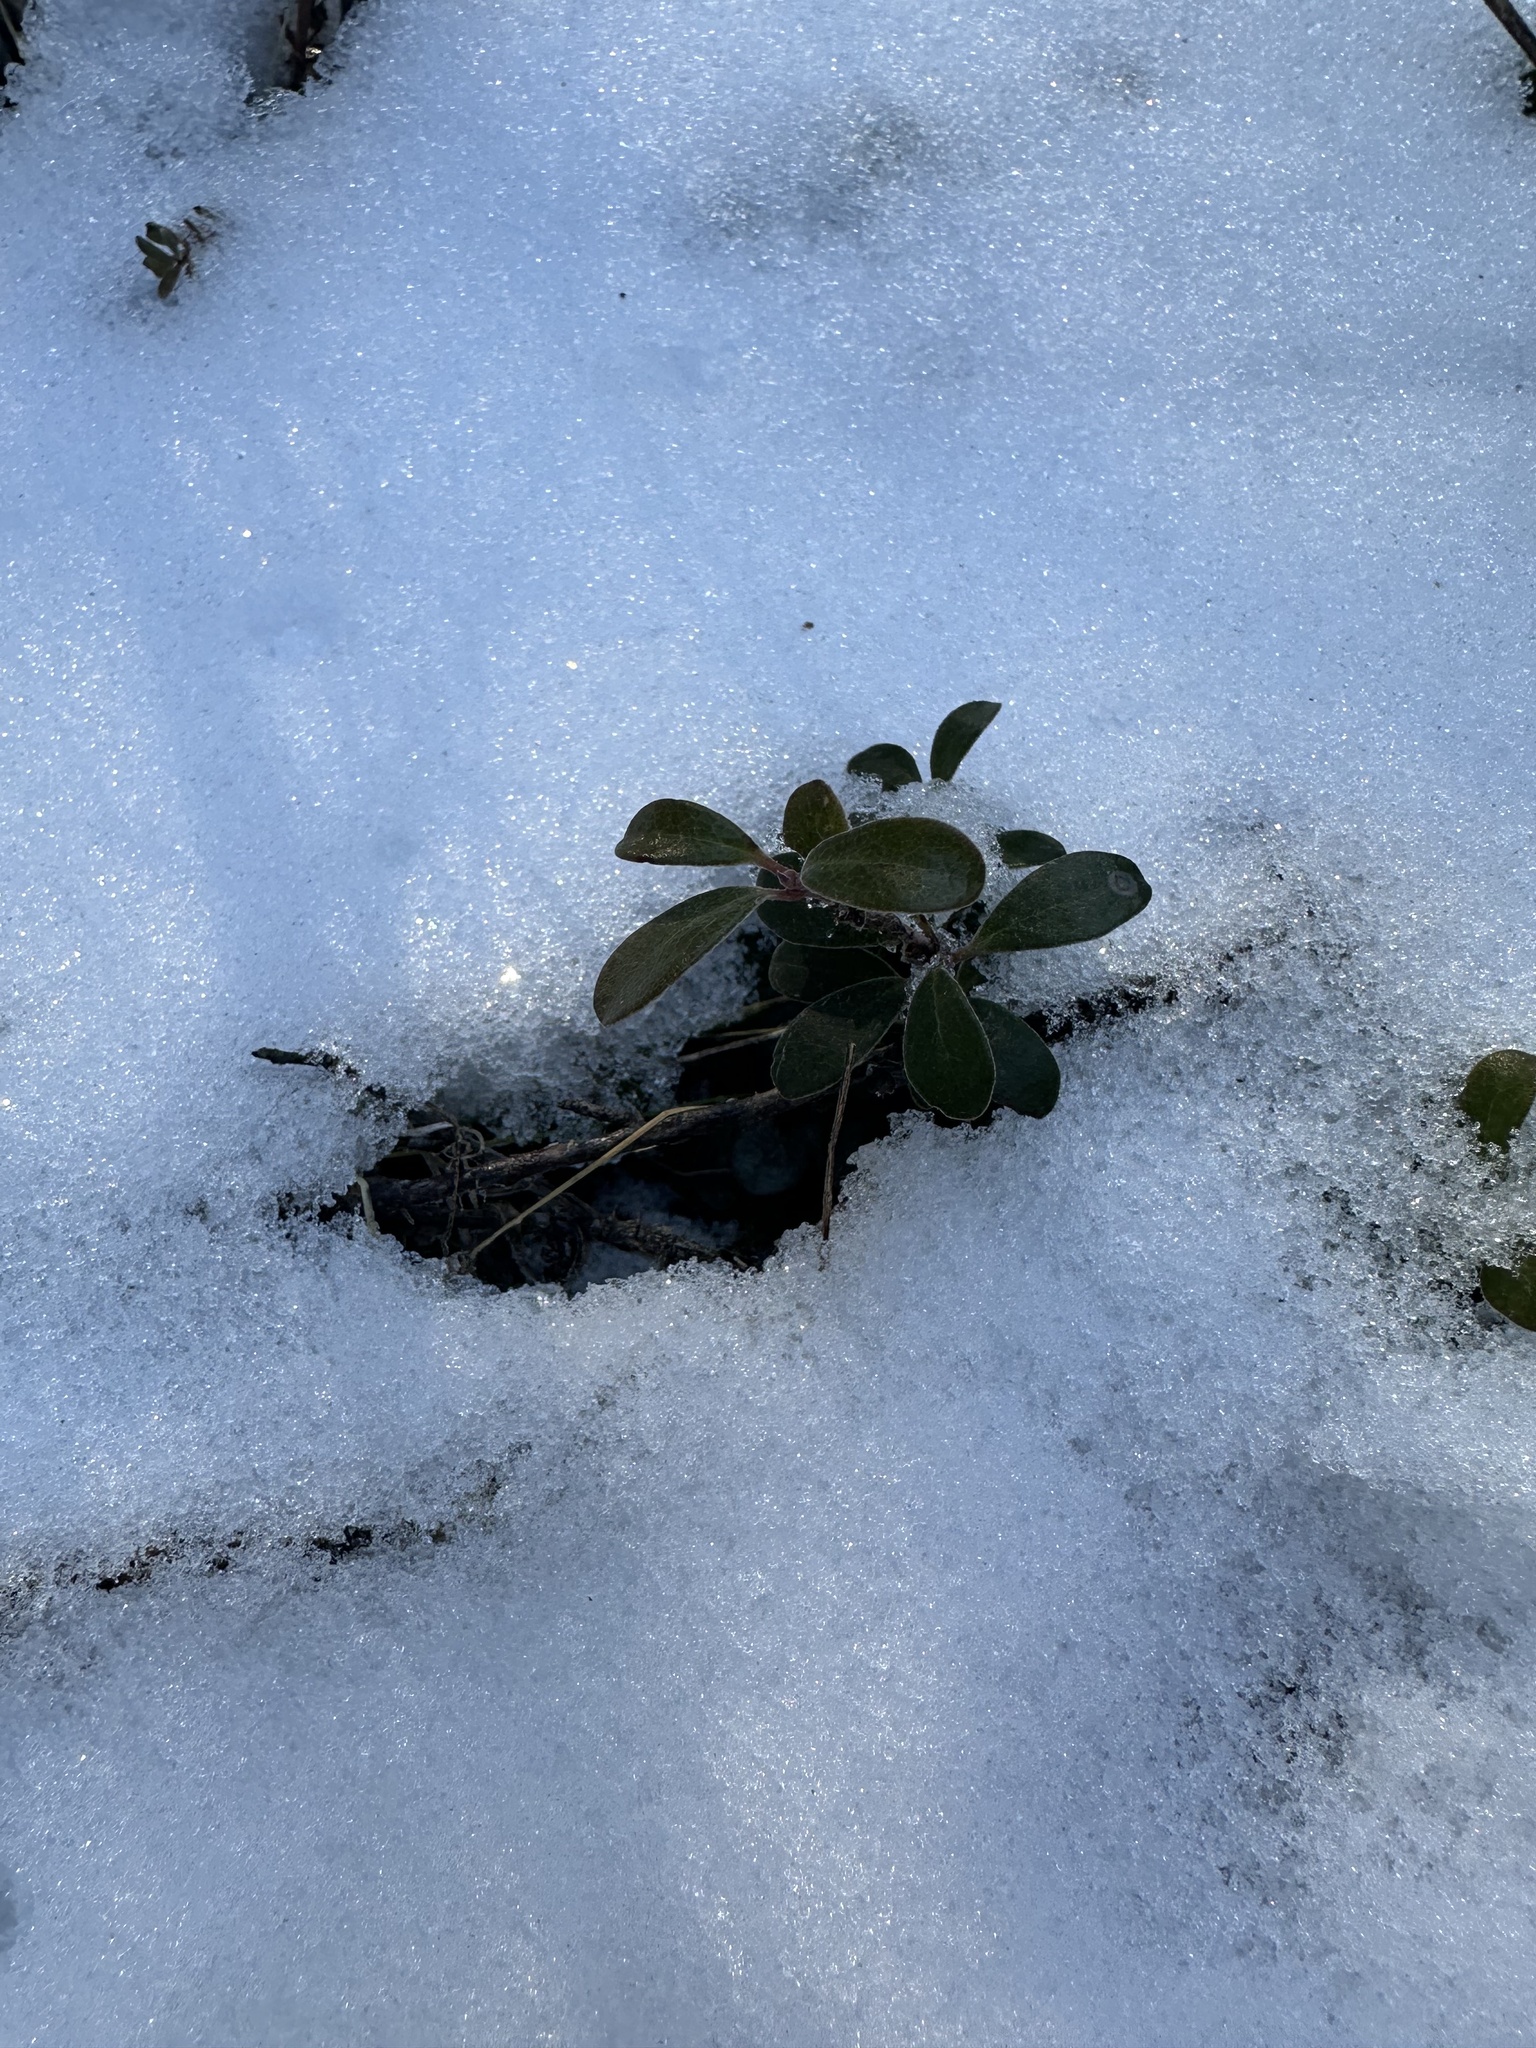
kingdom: Plantae
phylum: Tracheophyta
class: Magnoliopsida
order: Ericales
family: Ericaceae
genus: Arctostaphylos
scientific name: Arctostaphylos uva-ursi
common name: Bearberry
